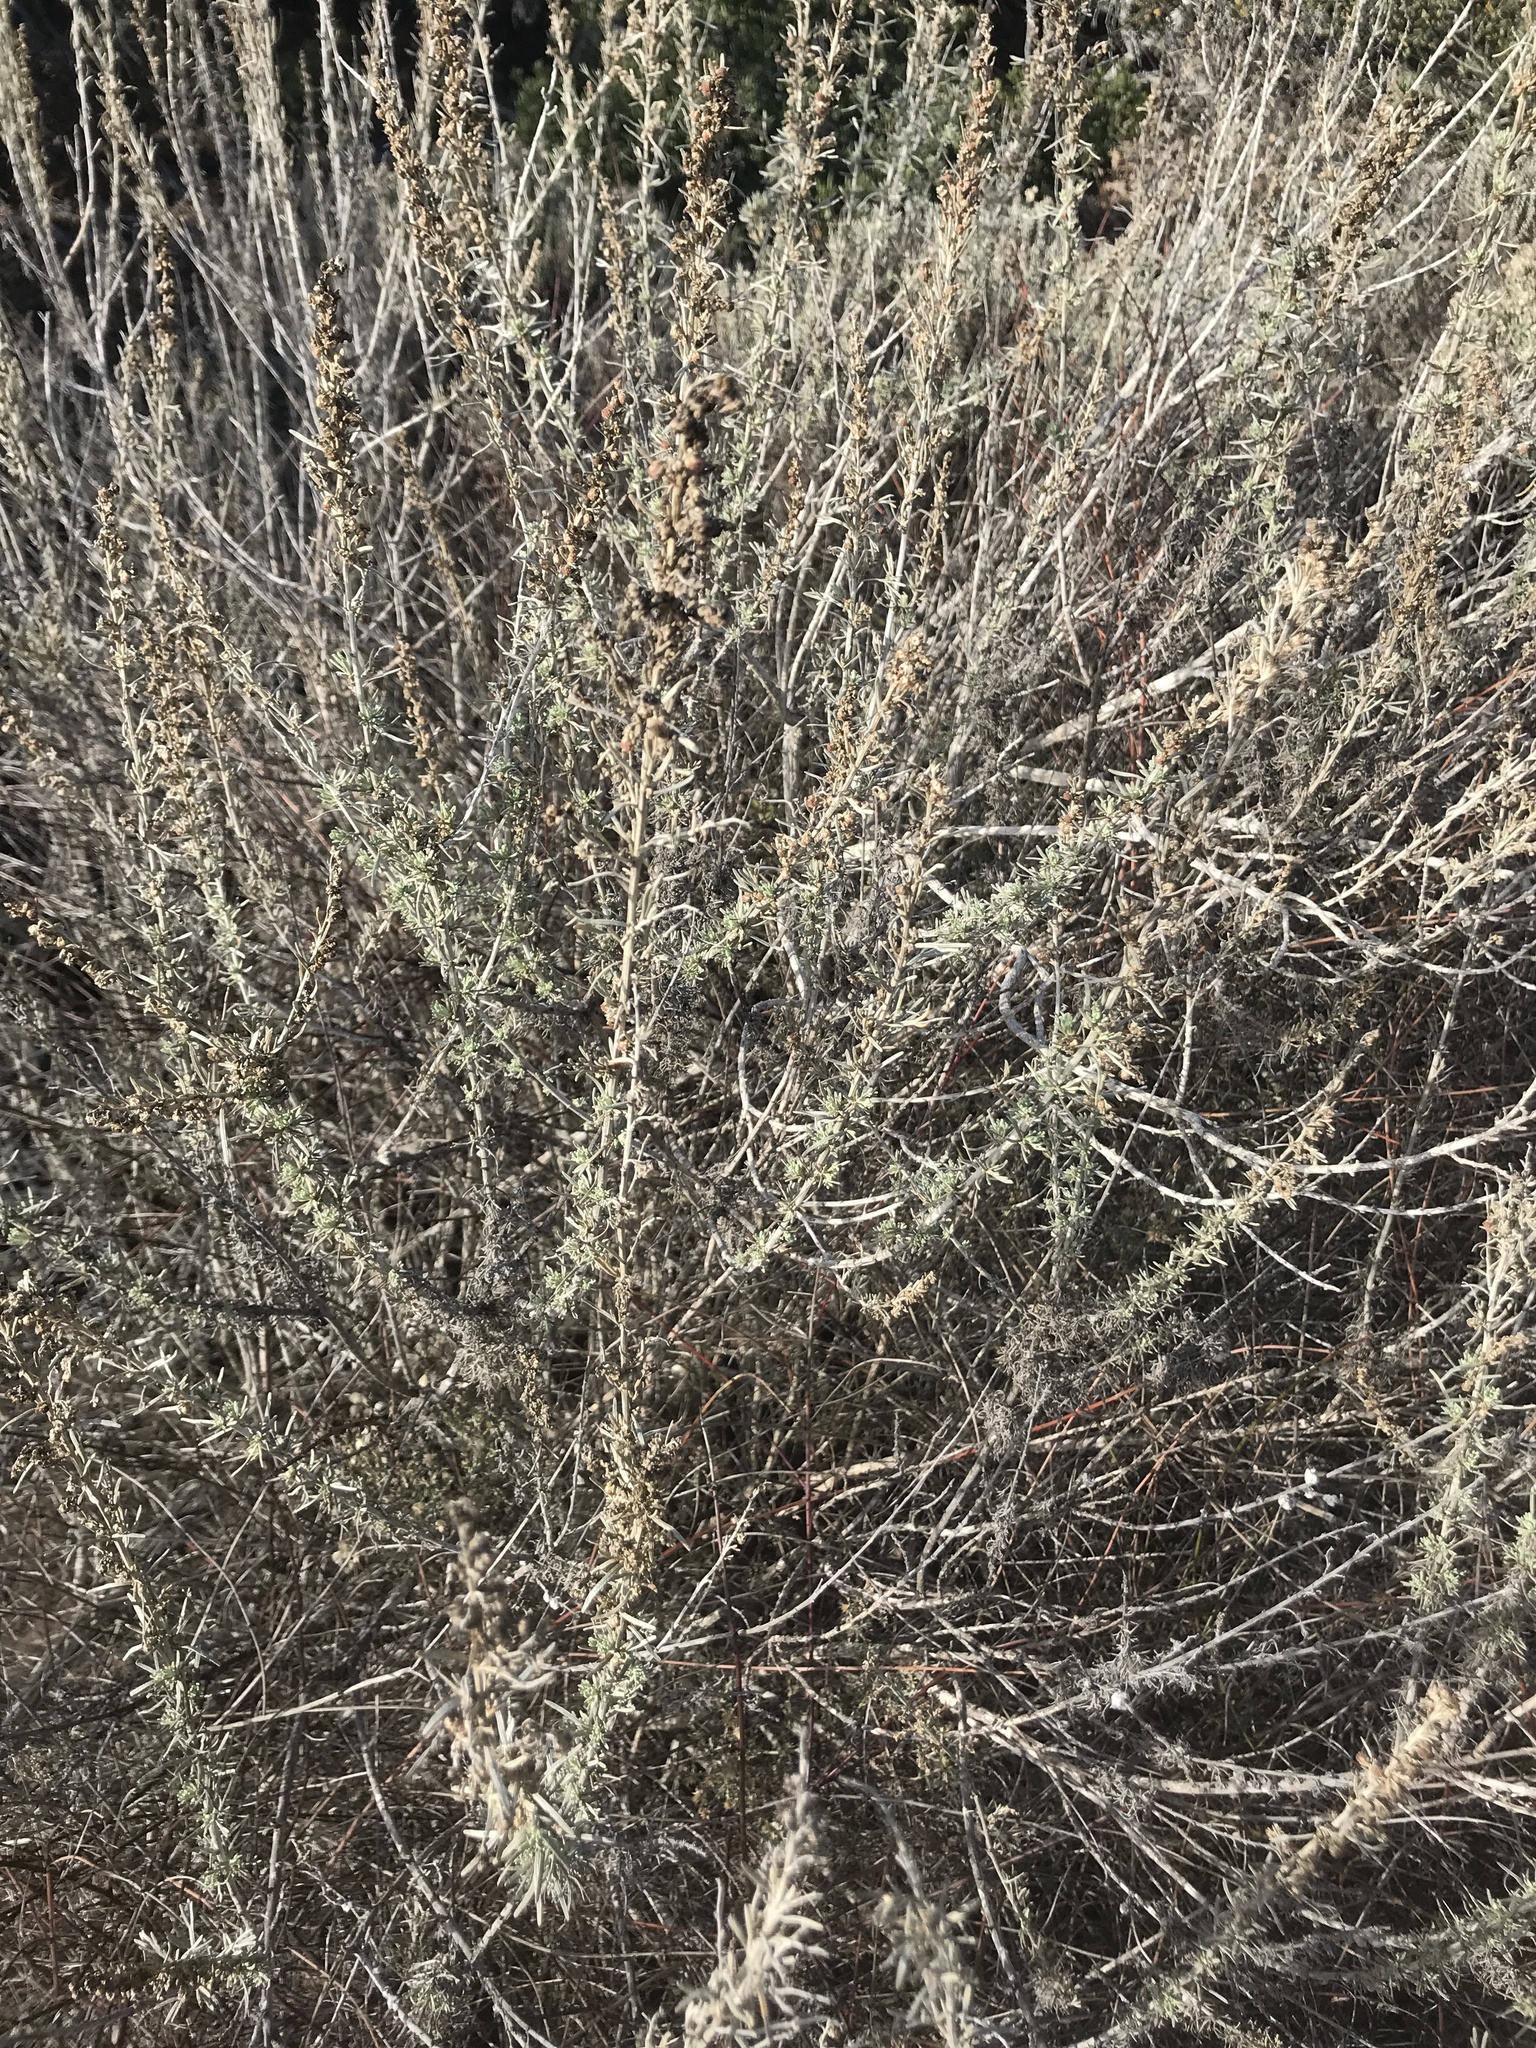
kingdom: Plantae
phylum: Tracheophyta
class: Magnoliopsida
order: Asterales
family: Asteraceae
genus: Artemisia
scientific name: Artemisia californica
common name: California sagebrush
